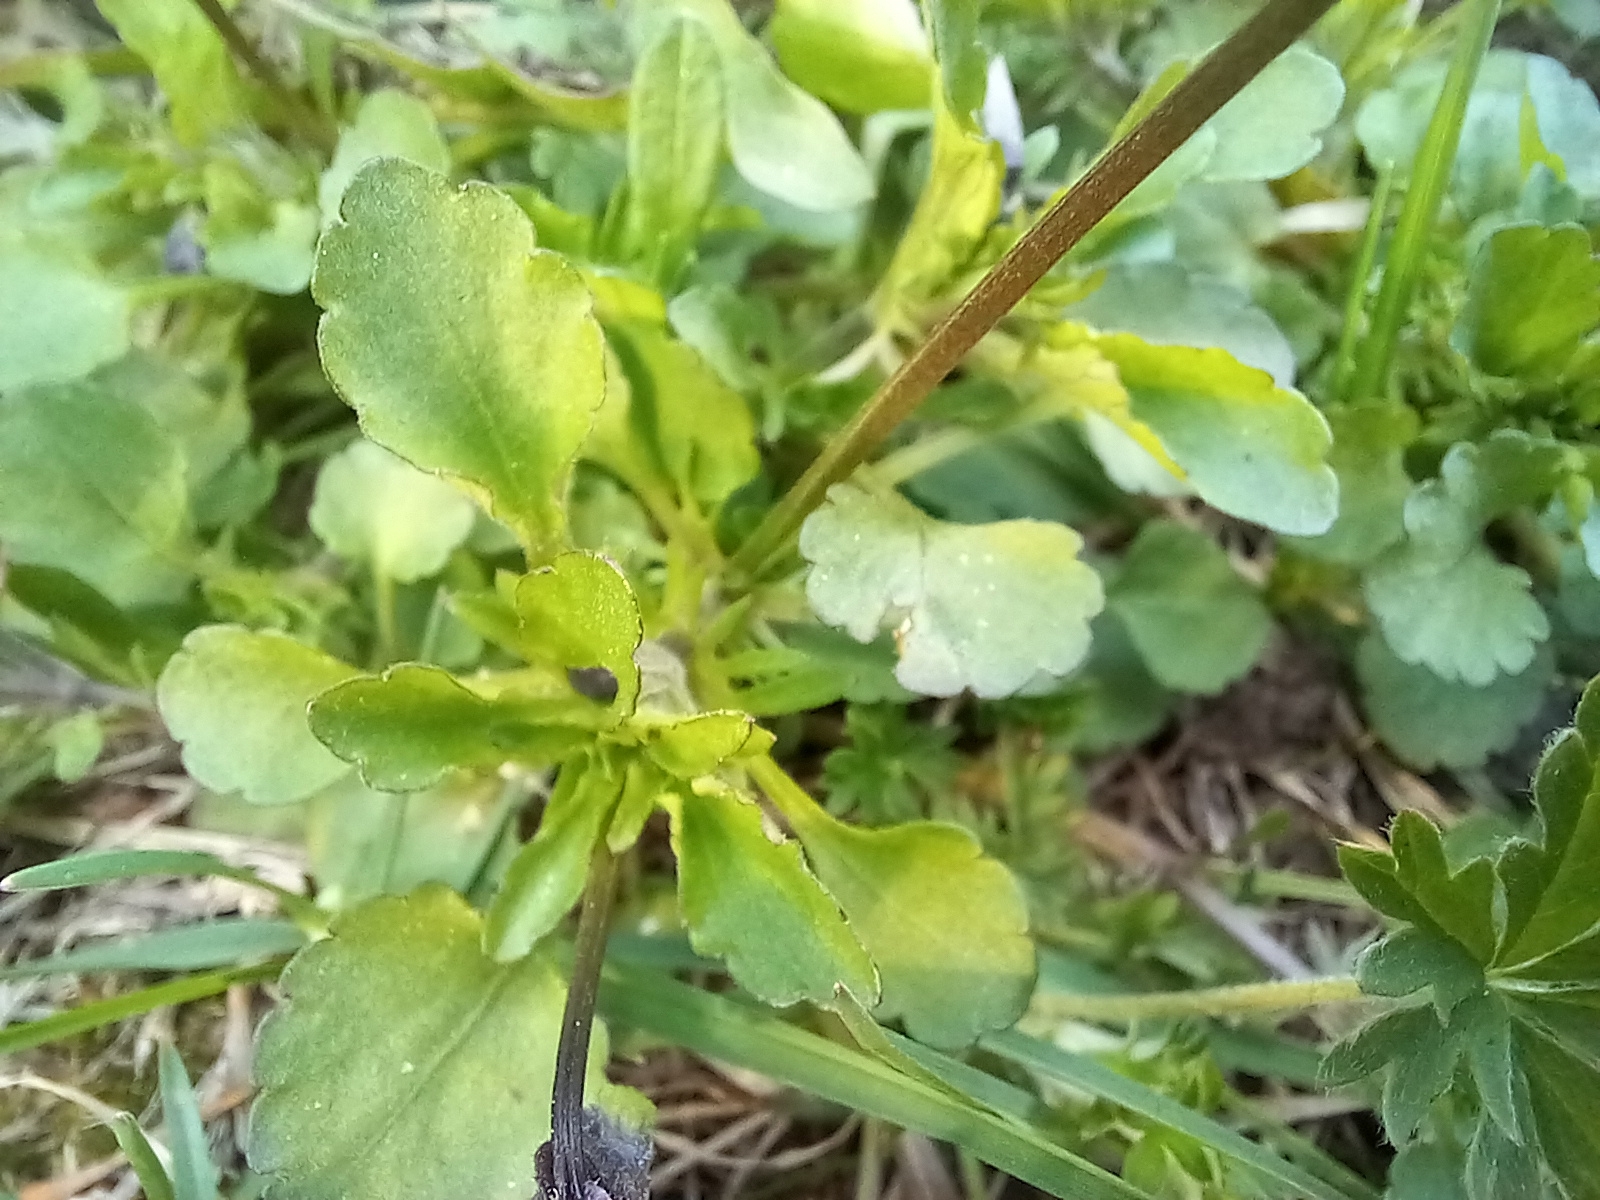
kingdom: Plantae
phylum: Tracheophyta
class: Magnoliopsida
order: Malpighiales
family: Violaceae
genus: Viola
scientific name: Viola arvensis
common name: Field pansy
